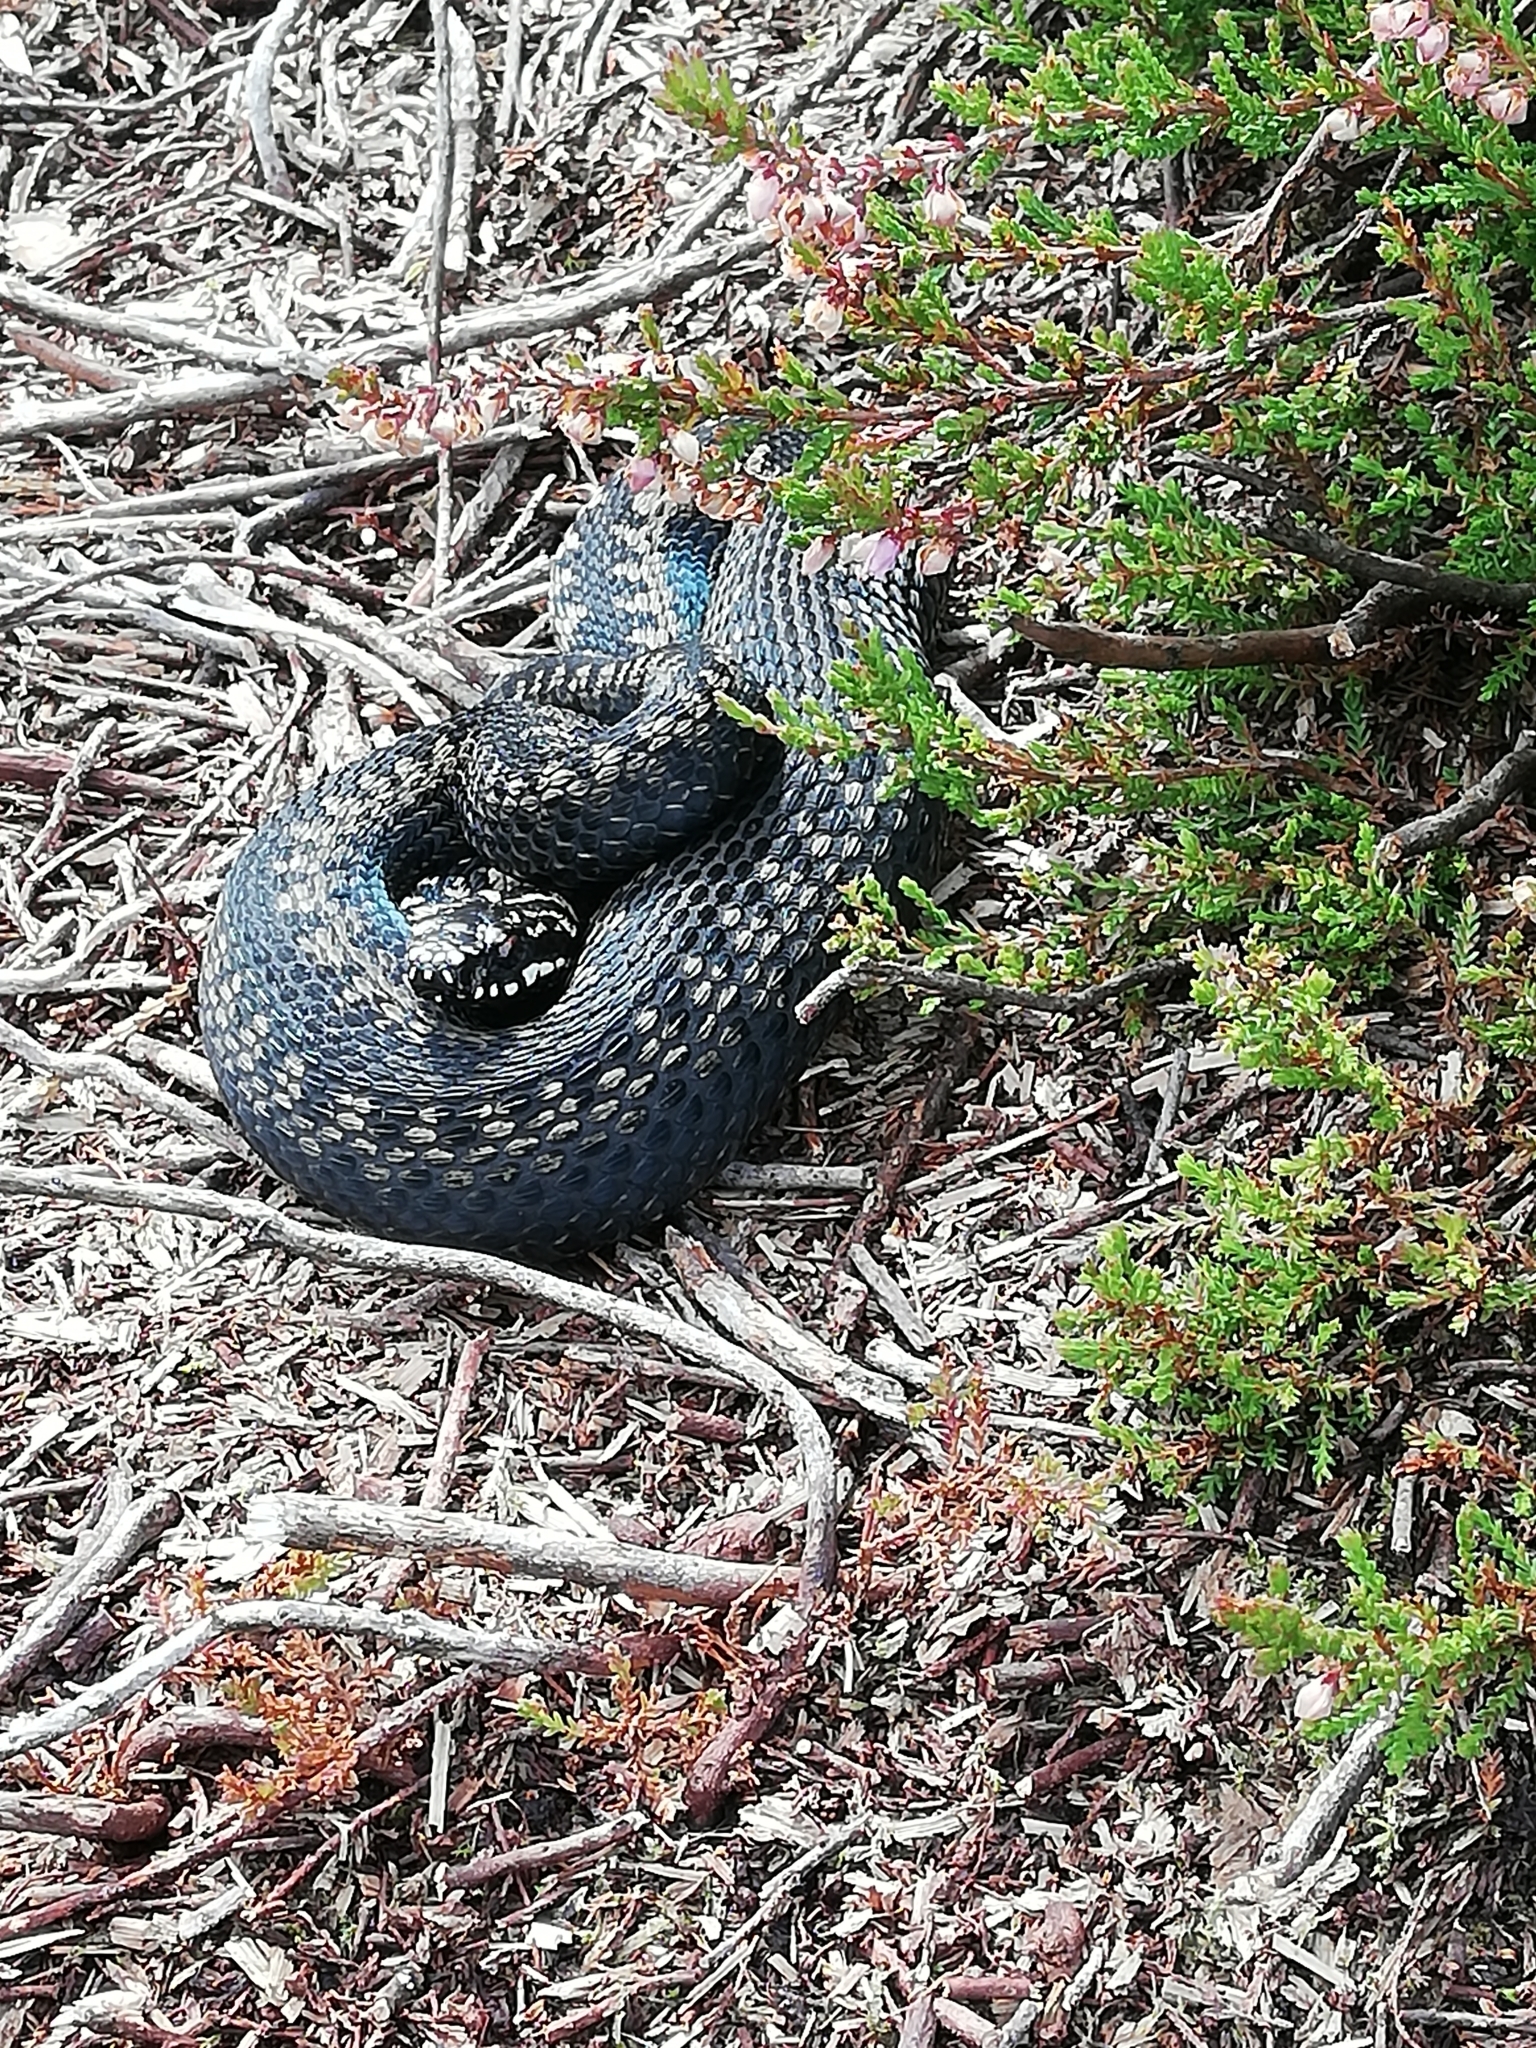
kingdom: Animalia
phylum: Chordata
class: Squamata
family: Viperidae
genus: Vipera
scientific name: Vipera berus
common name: Adder
